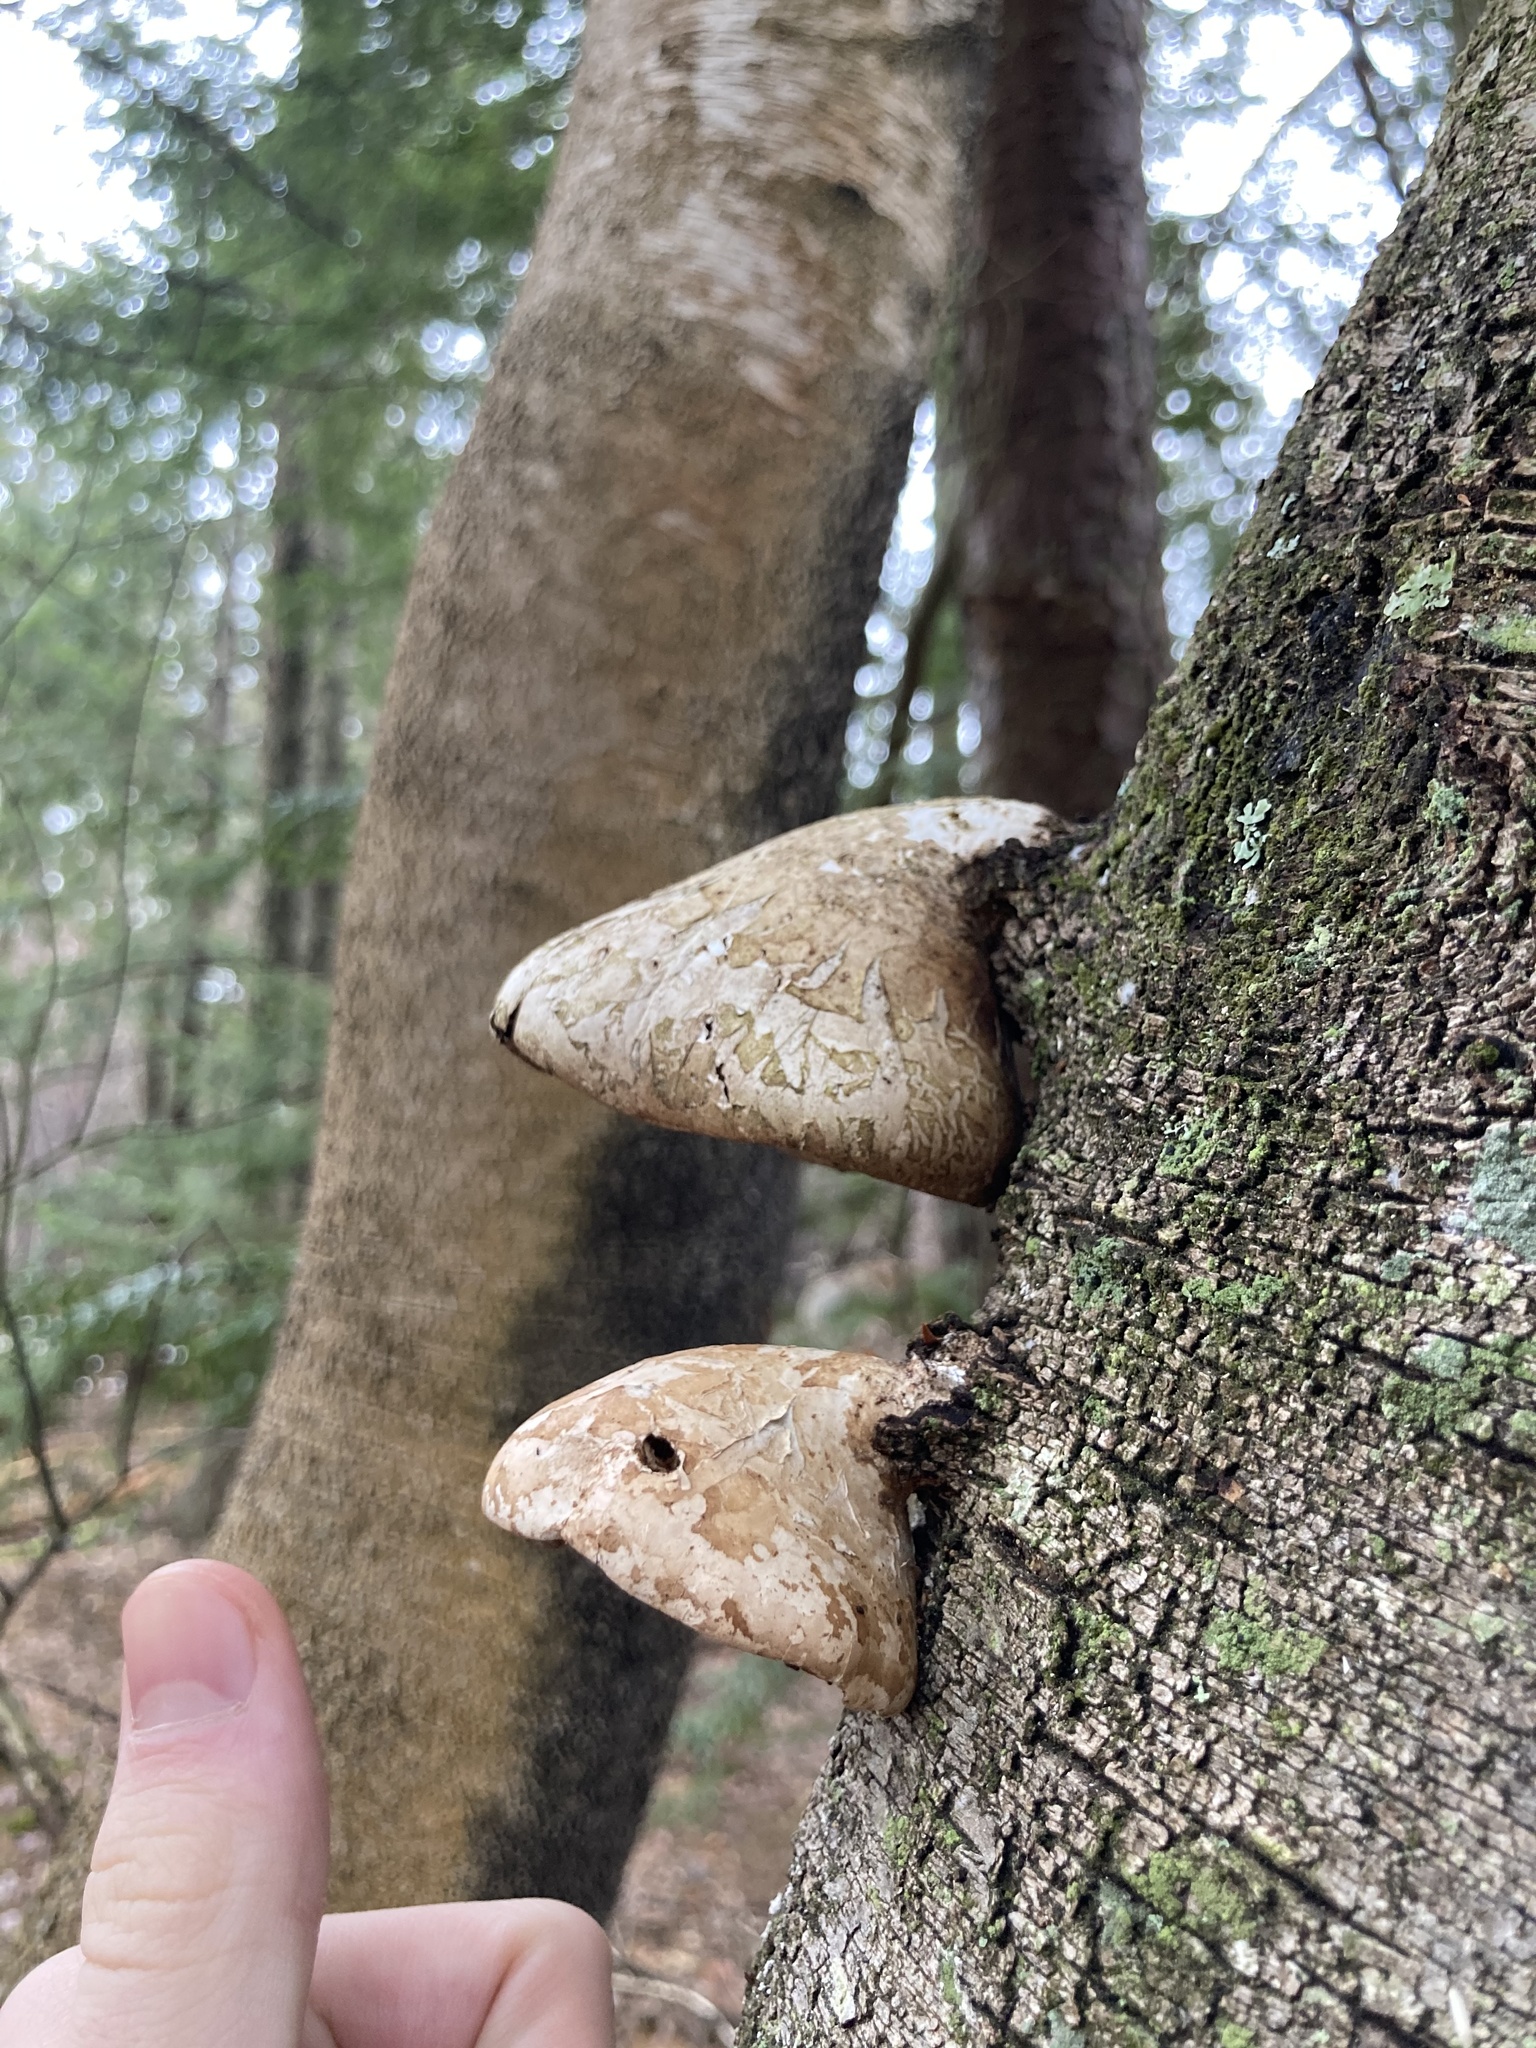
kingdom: Fungi
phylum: Basidiomycota
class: Agaricomycetes
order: Polyporales
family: Fomitopsidaceae
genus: Fomitopsis
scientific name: Fomitopsis betulina
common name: Birch polypore
